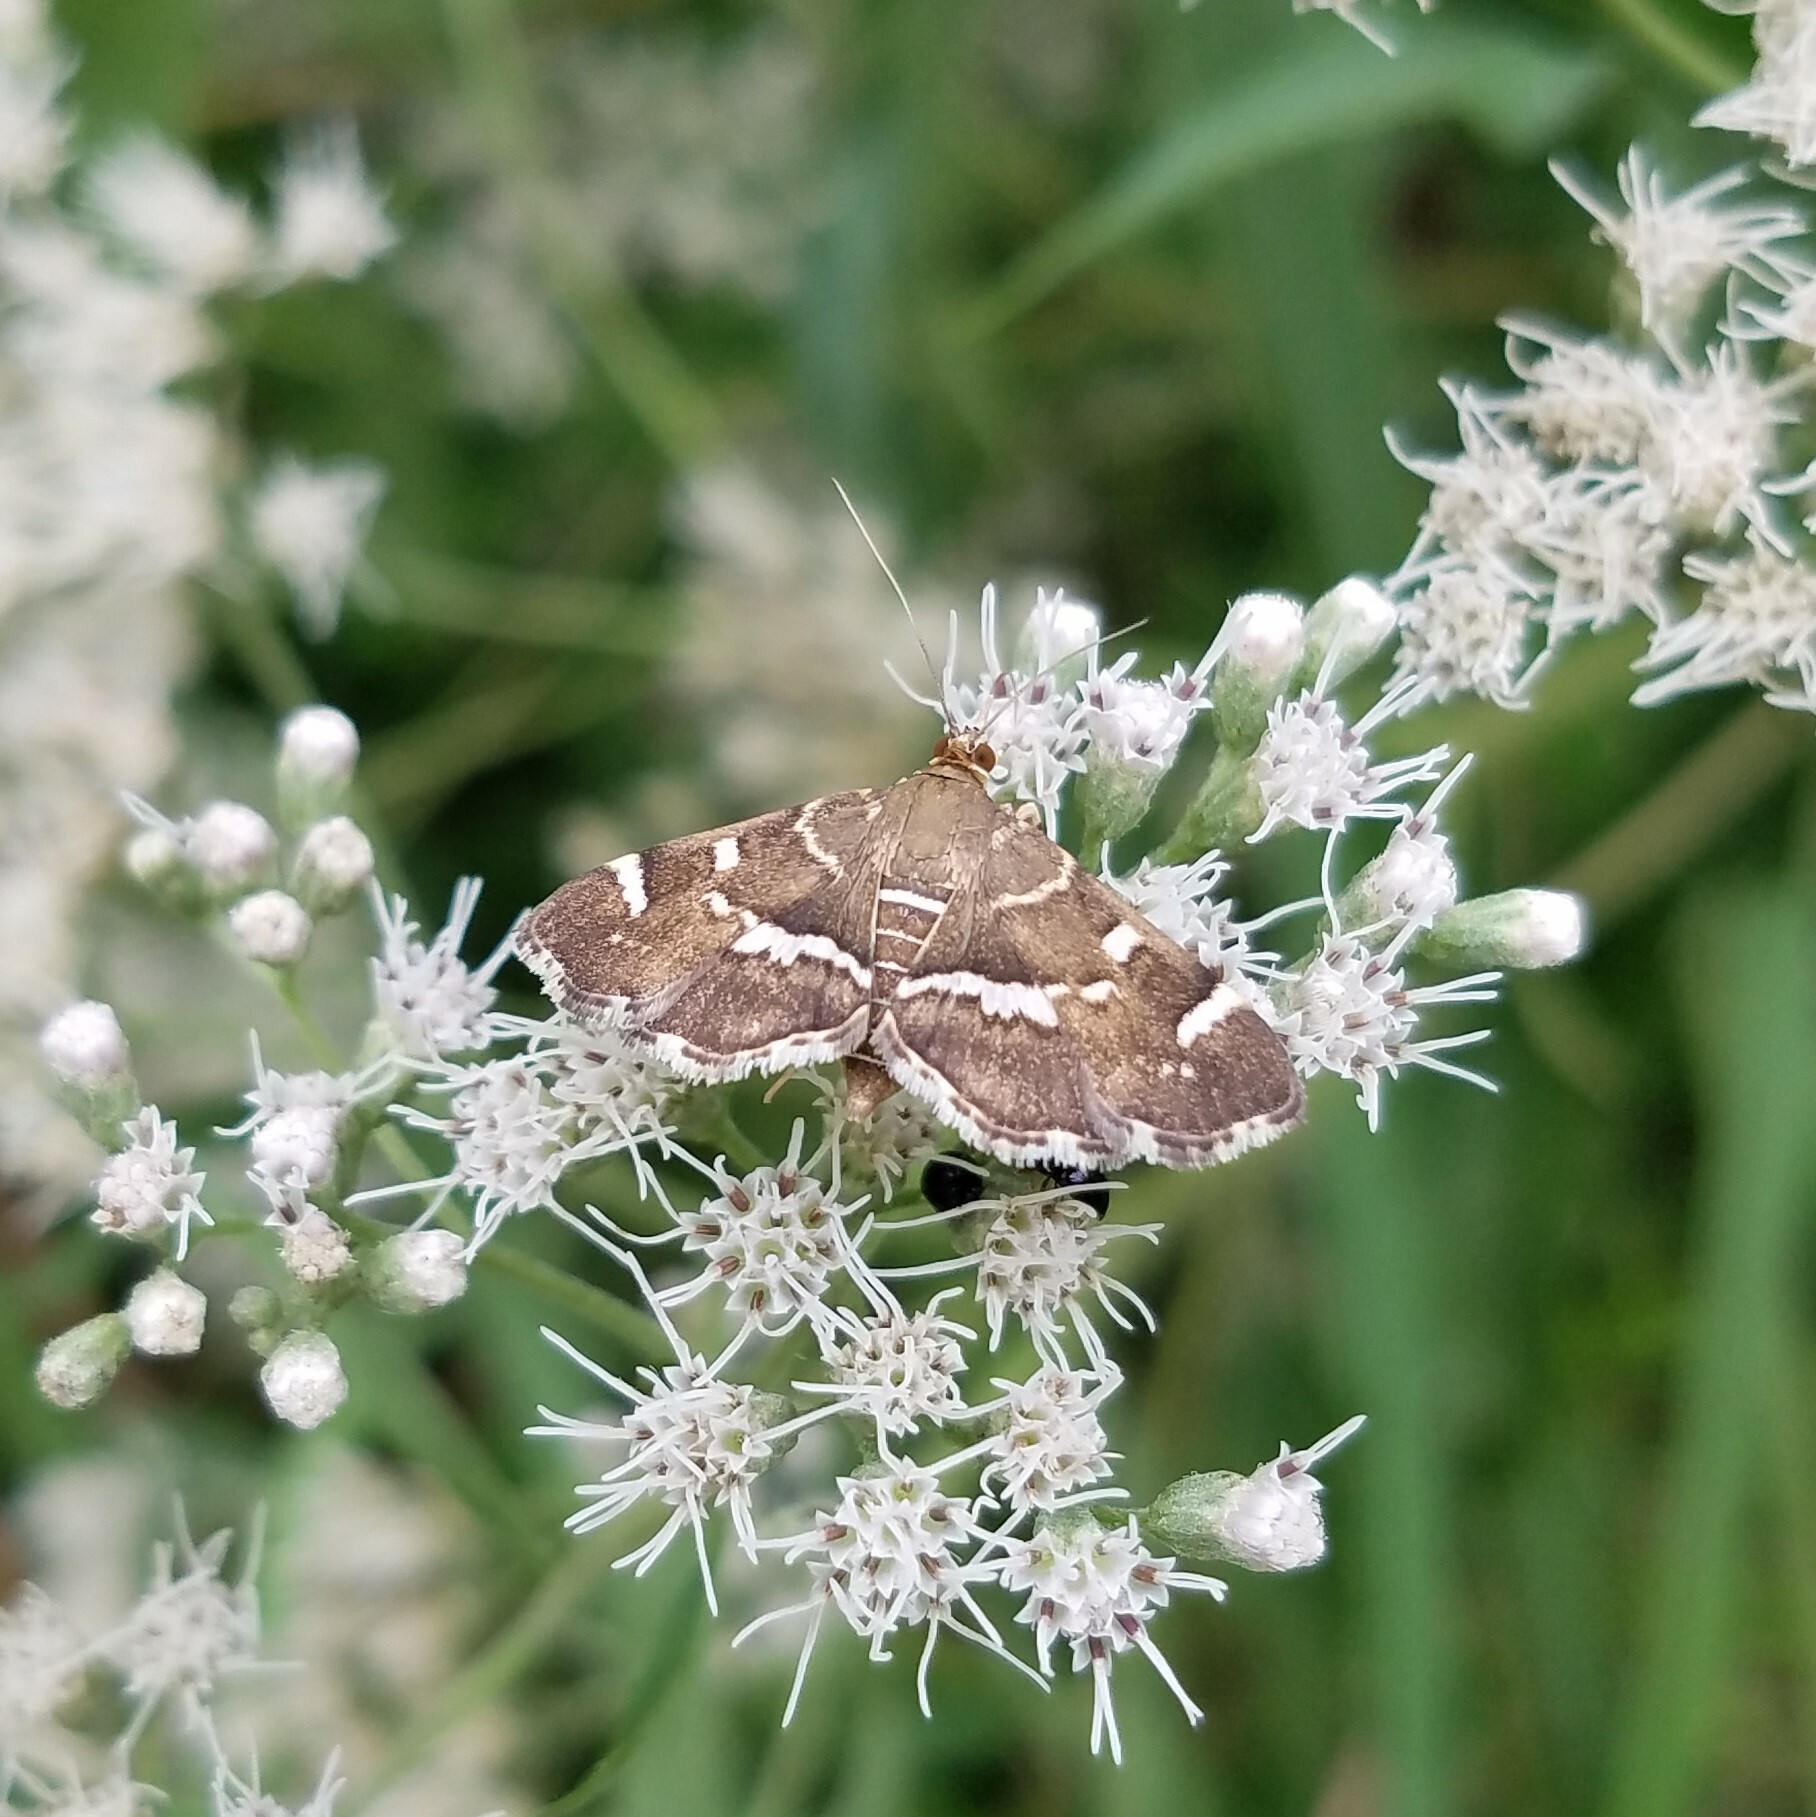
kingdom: Animalia
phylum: Arthropoda
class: Insecta
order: Lepidoptera
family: Crambidae
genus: Hymenia
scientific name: Hymenia perspectalis
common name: Spotted beet webworm
